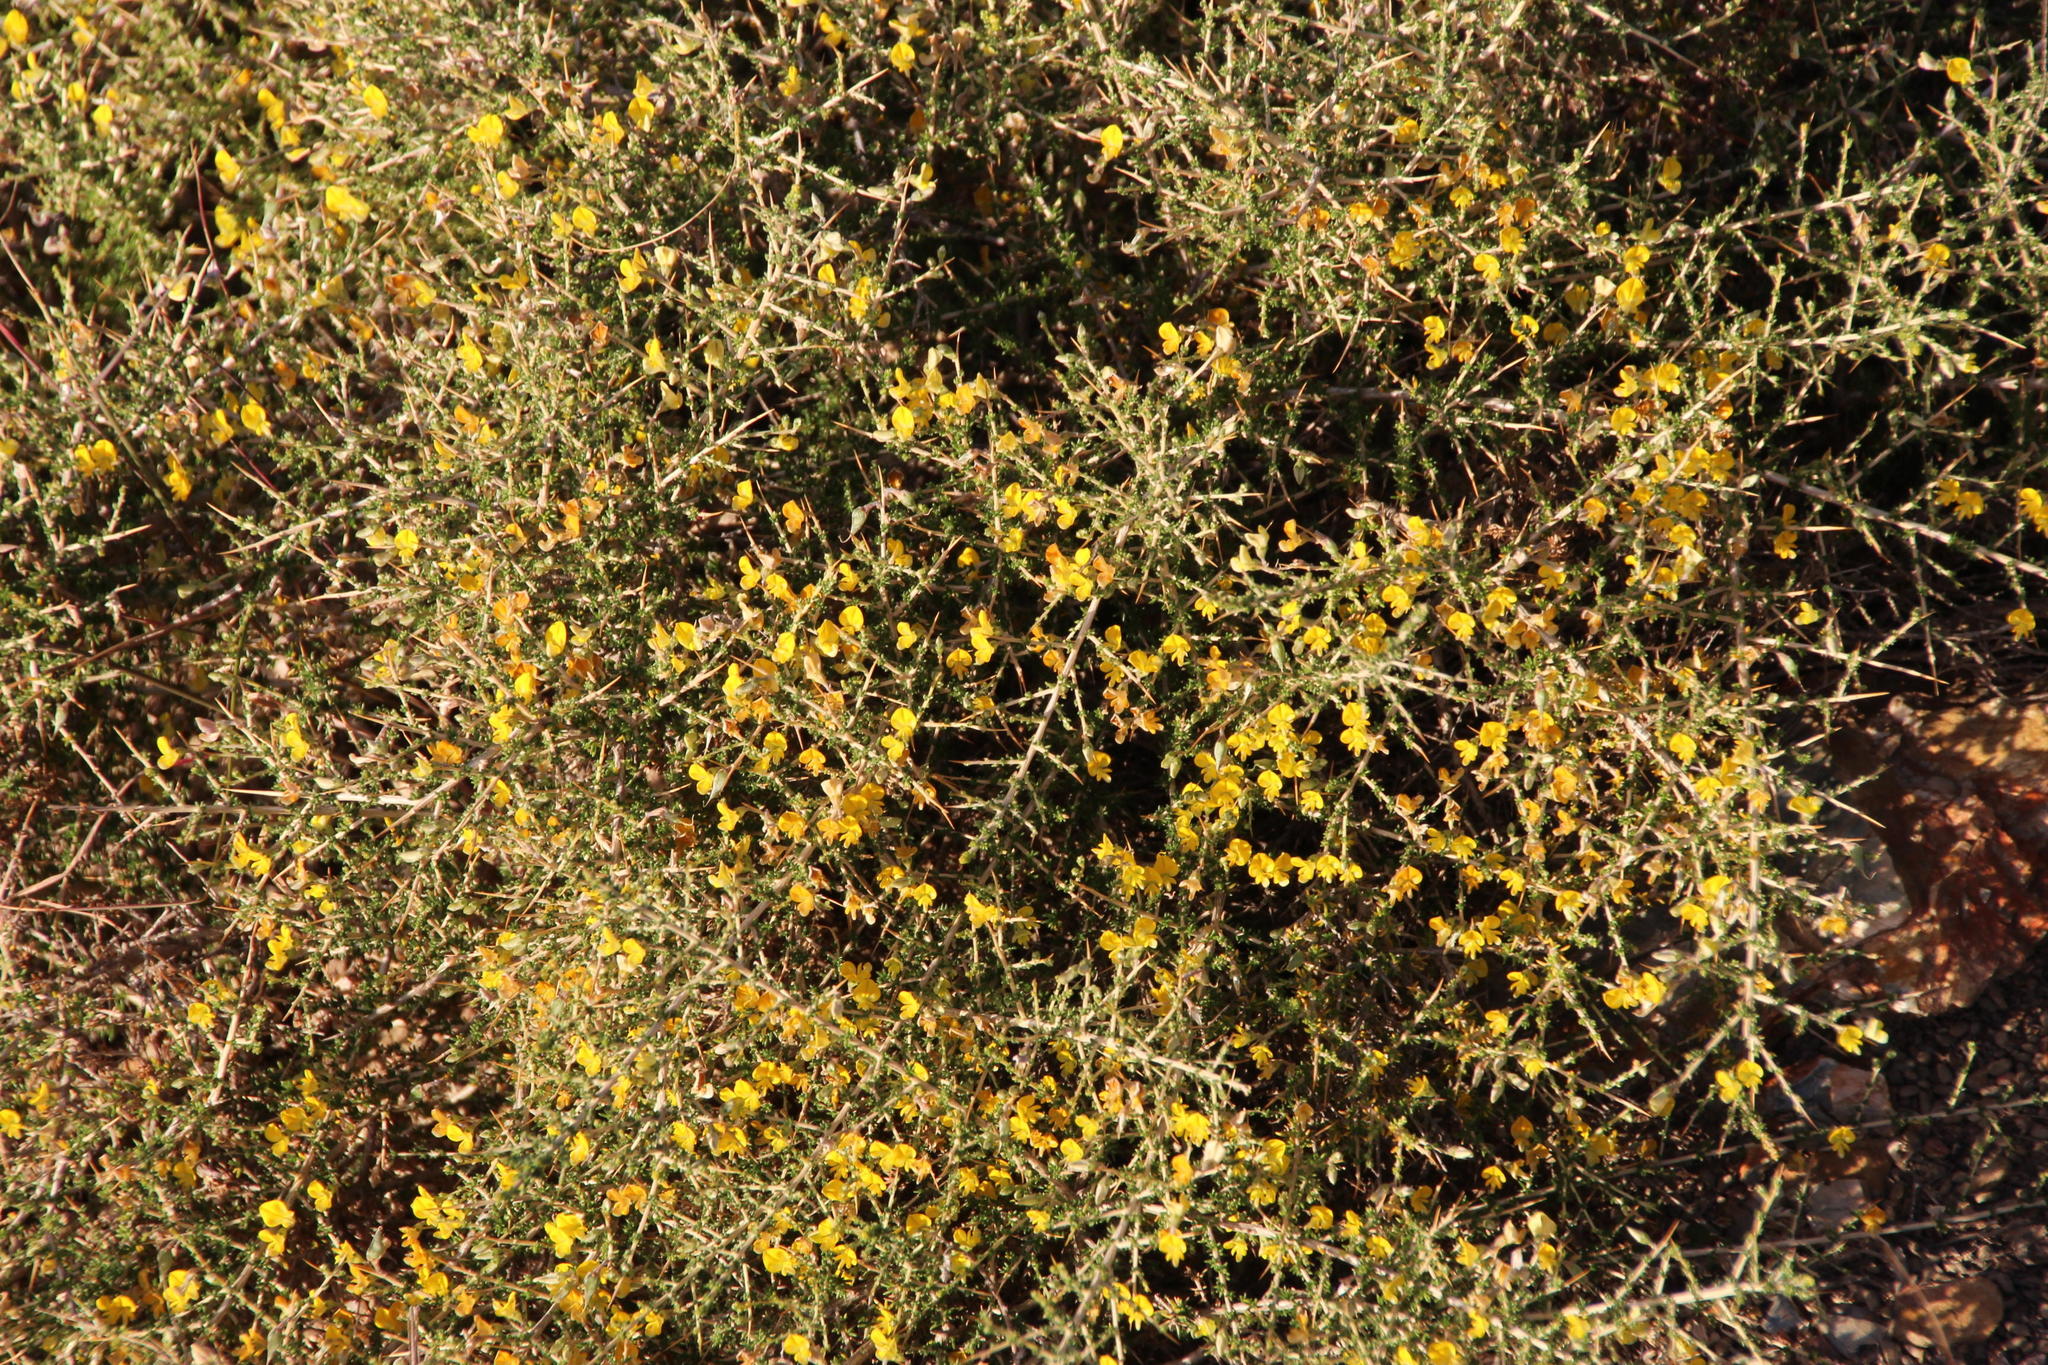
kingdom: Plantae
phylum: Tracheophyta
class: Magnoliopsida
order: Fabales
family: Fabaceae
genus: Aspalathus
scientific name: Aspalathus acuminata
